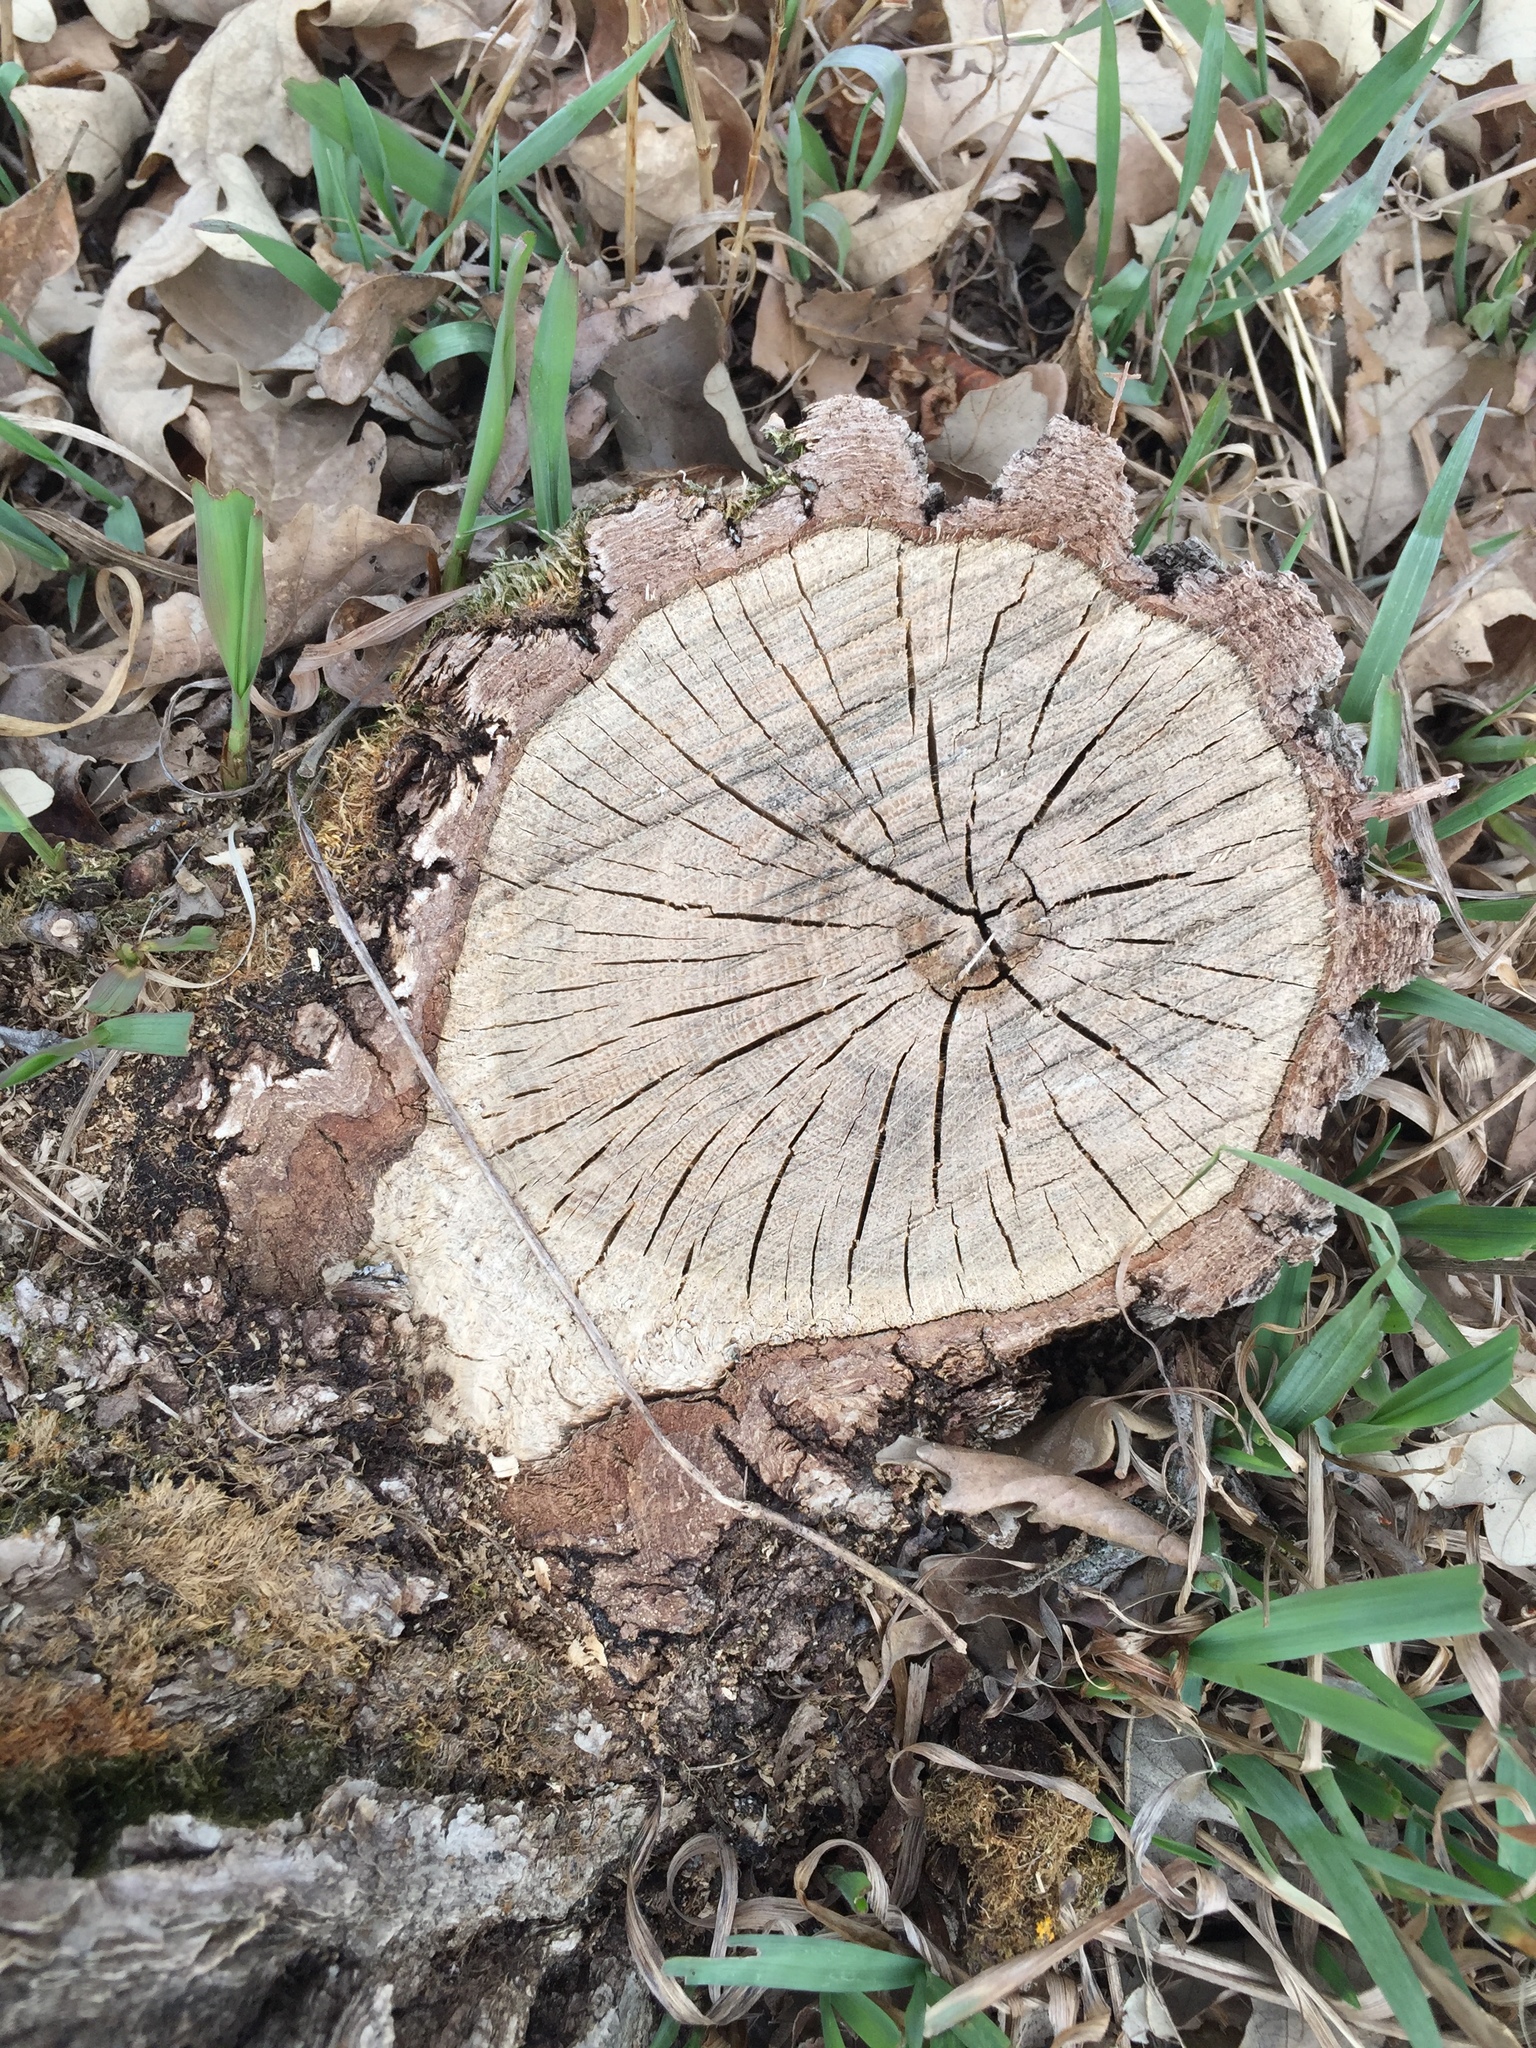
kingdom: Plantae
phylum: Tracheophyta
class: Magnoliopsida
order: Fagales
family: Fagaceae
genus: Quercus
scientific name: Quercus macrocarpa
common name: Bur oak
